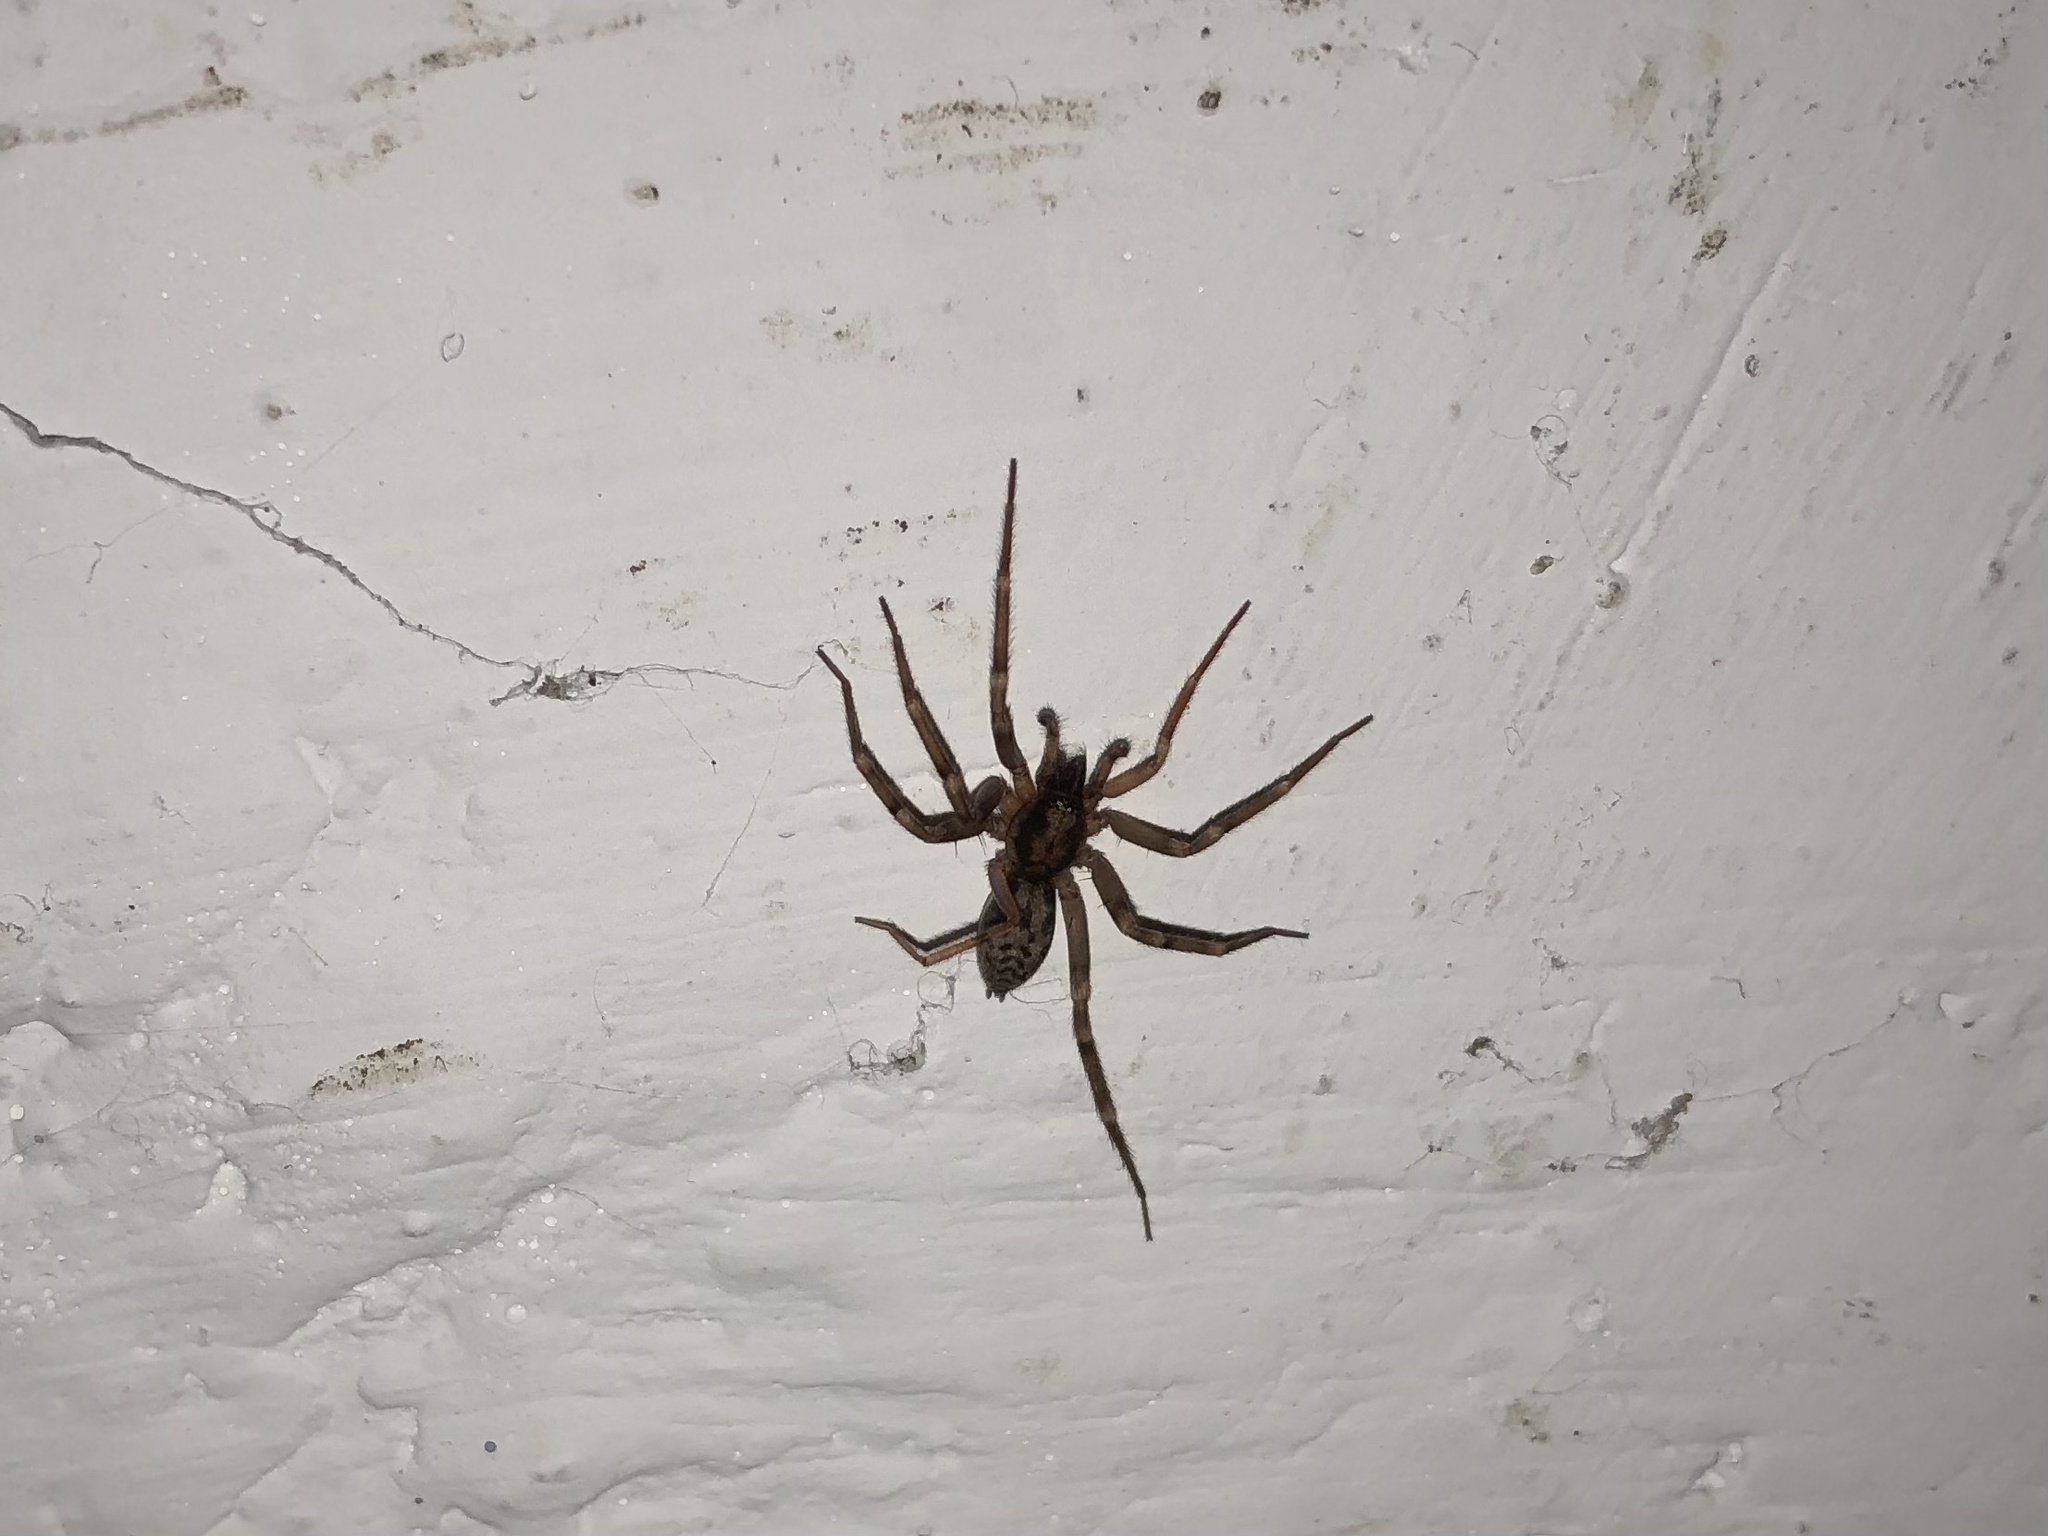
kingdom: Animalia
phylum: Arthropoda
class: Arachnida
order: Araneae
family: Liocranidae
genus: Liocranum
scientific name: Liocranum rupicola
